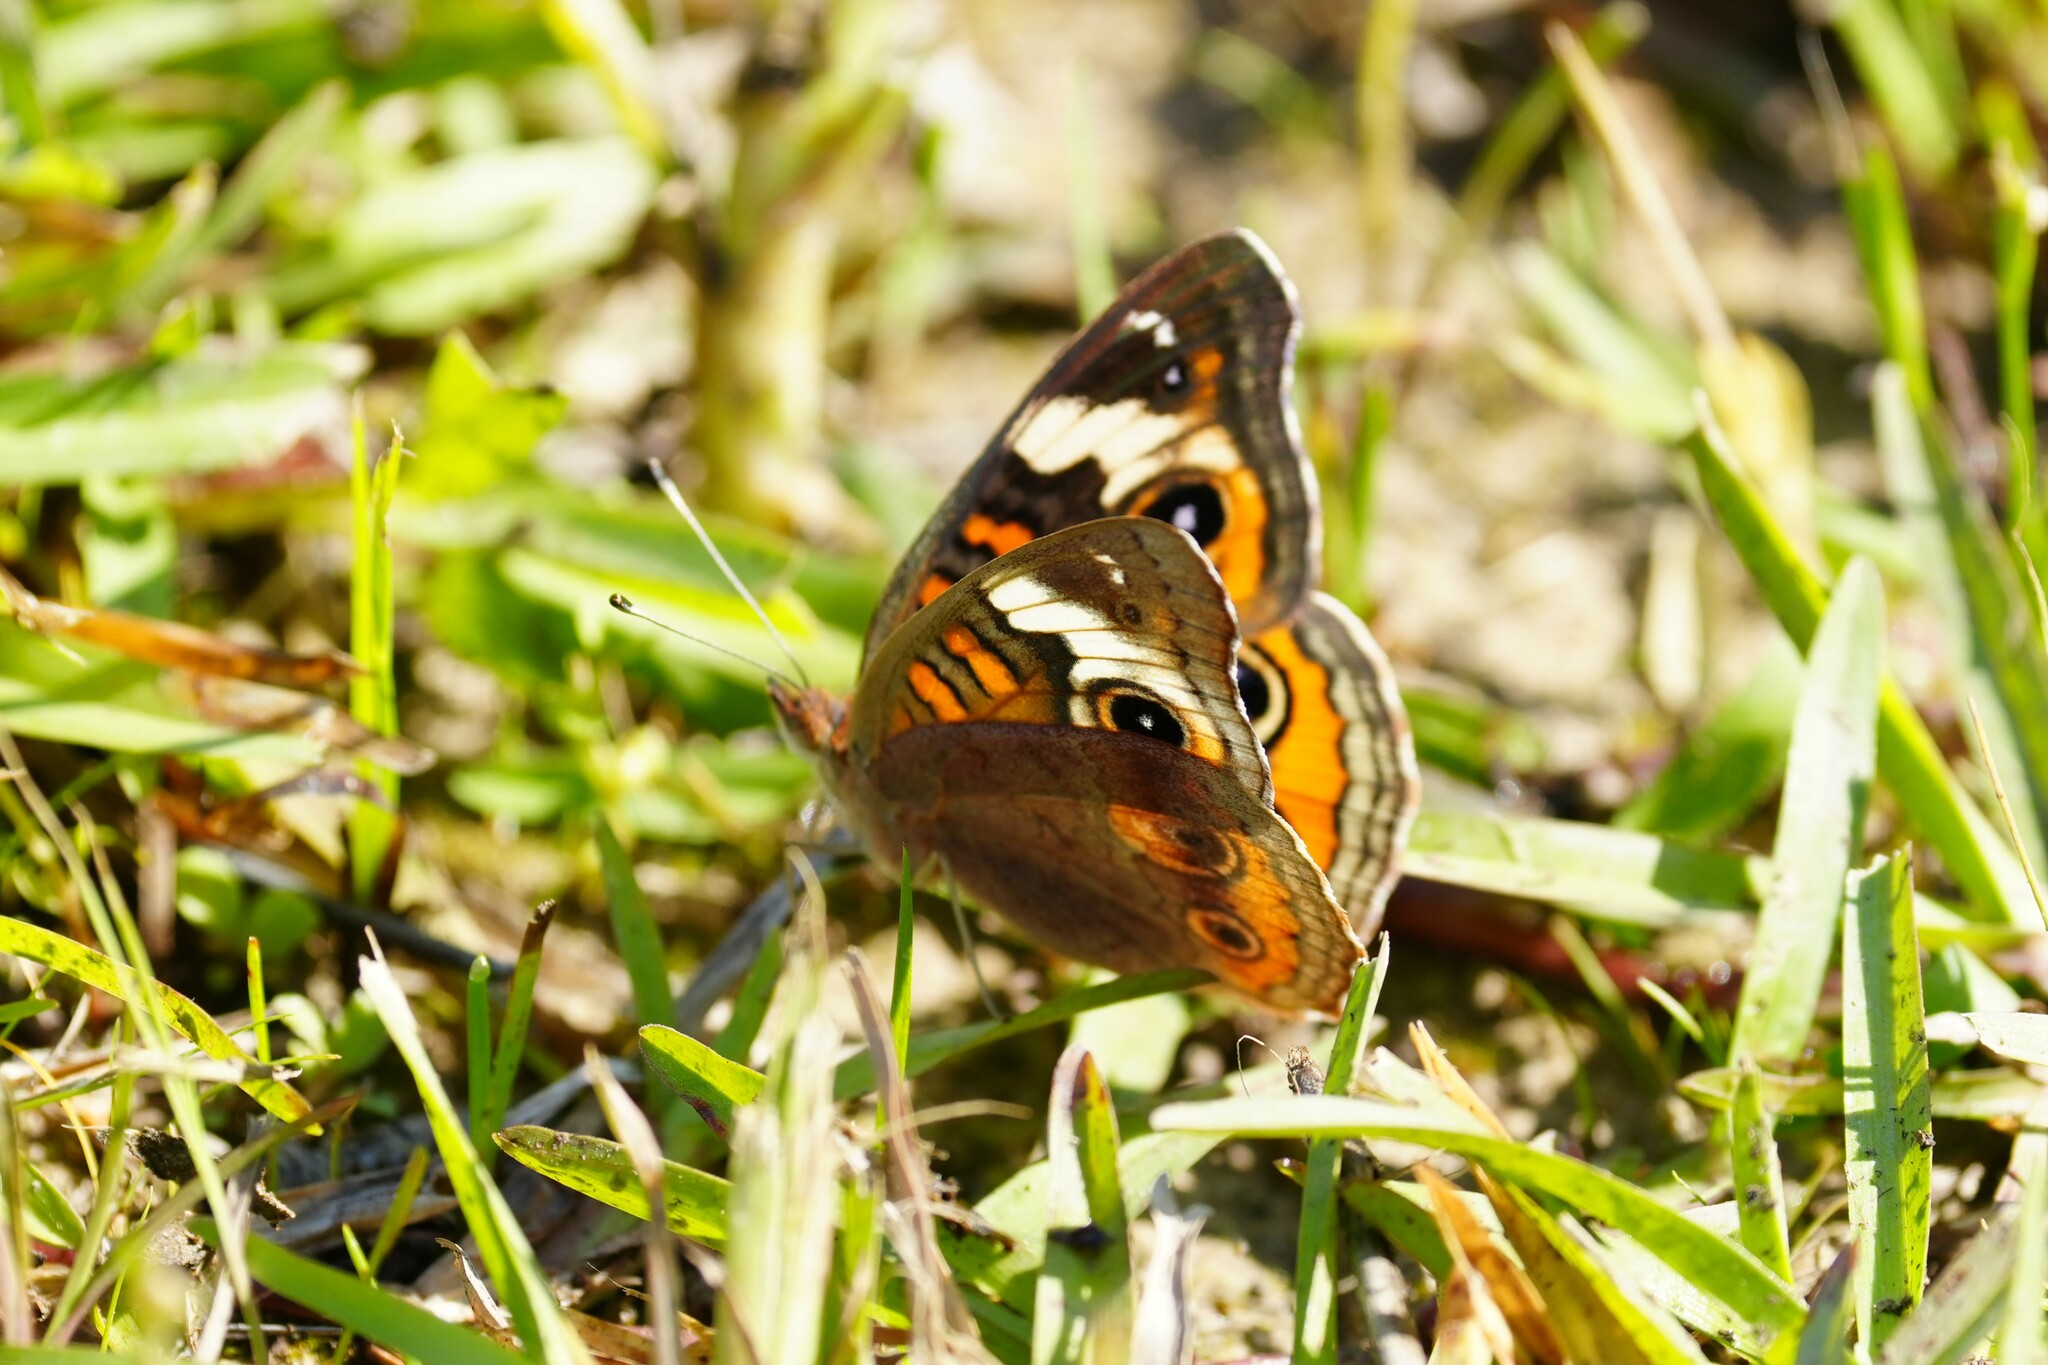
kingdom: Animalia
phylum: Arthropoda
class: Insecta
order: Lepidoptera
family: Nymphalidae
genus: Junonia
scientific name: Junonia coenia
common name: Common buckeye
